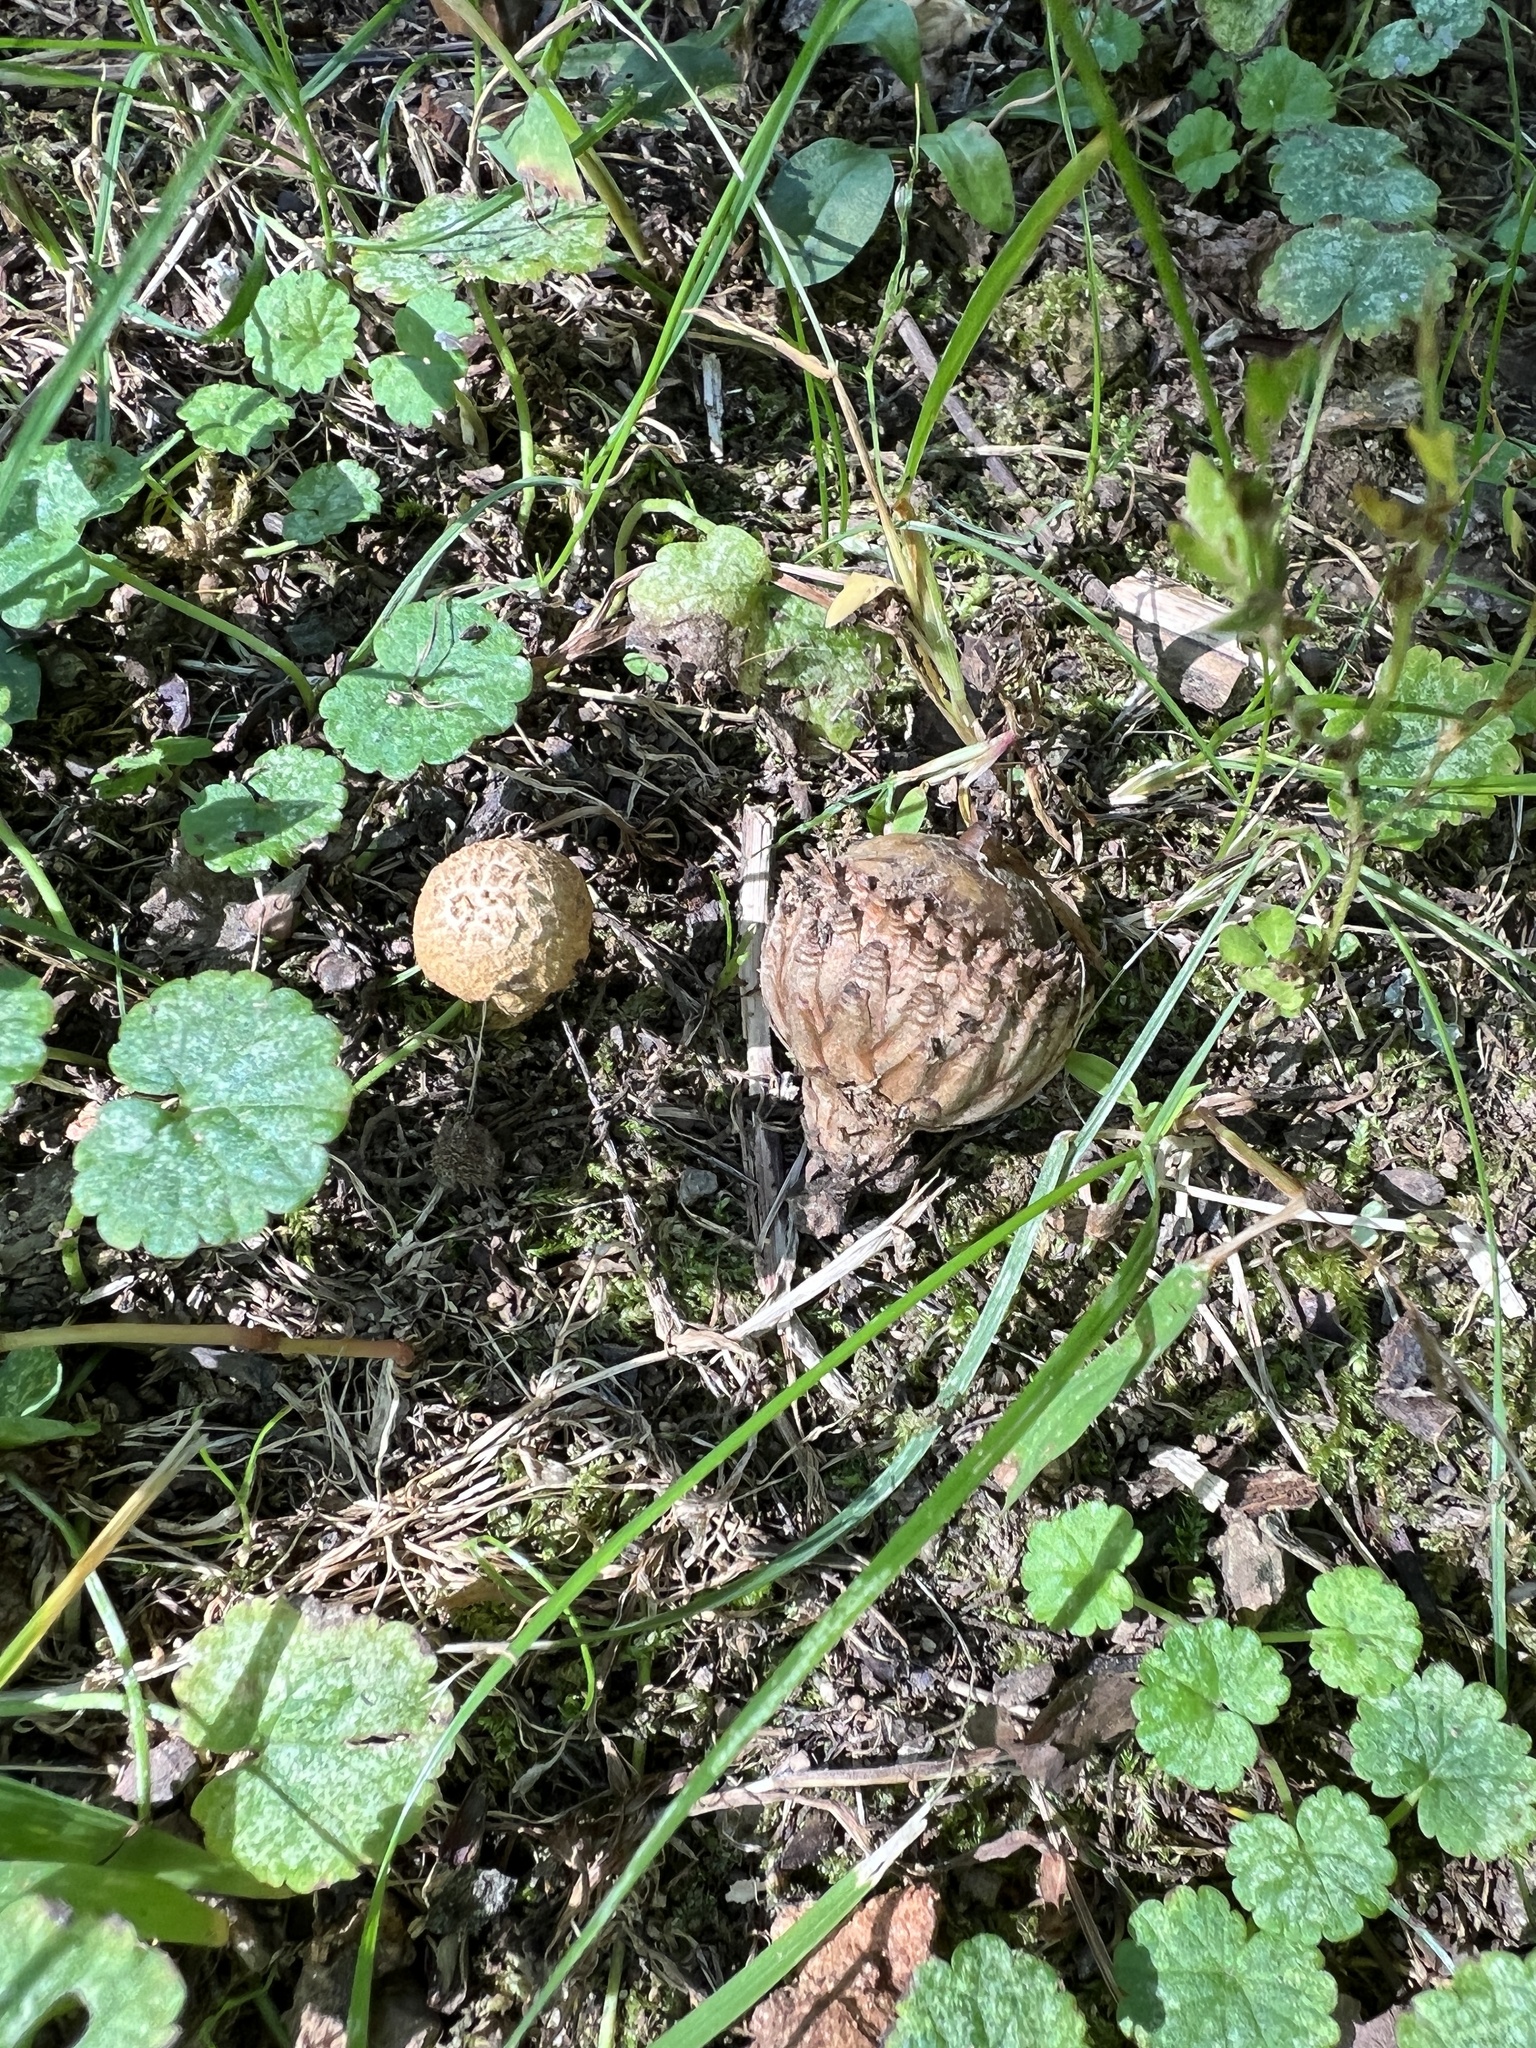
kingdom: Fungi
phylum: Basidiomycota
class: Agaricomycetes
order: Agaricales
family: Inocybaceae
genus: Mallocybe
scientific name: Mallocybe unicolor
